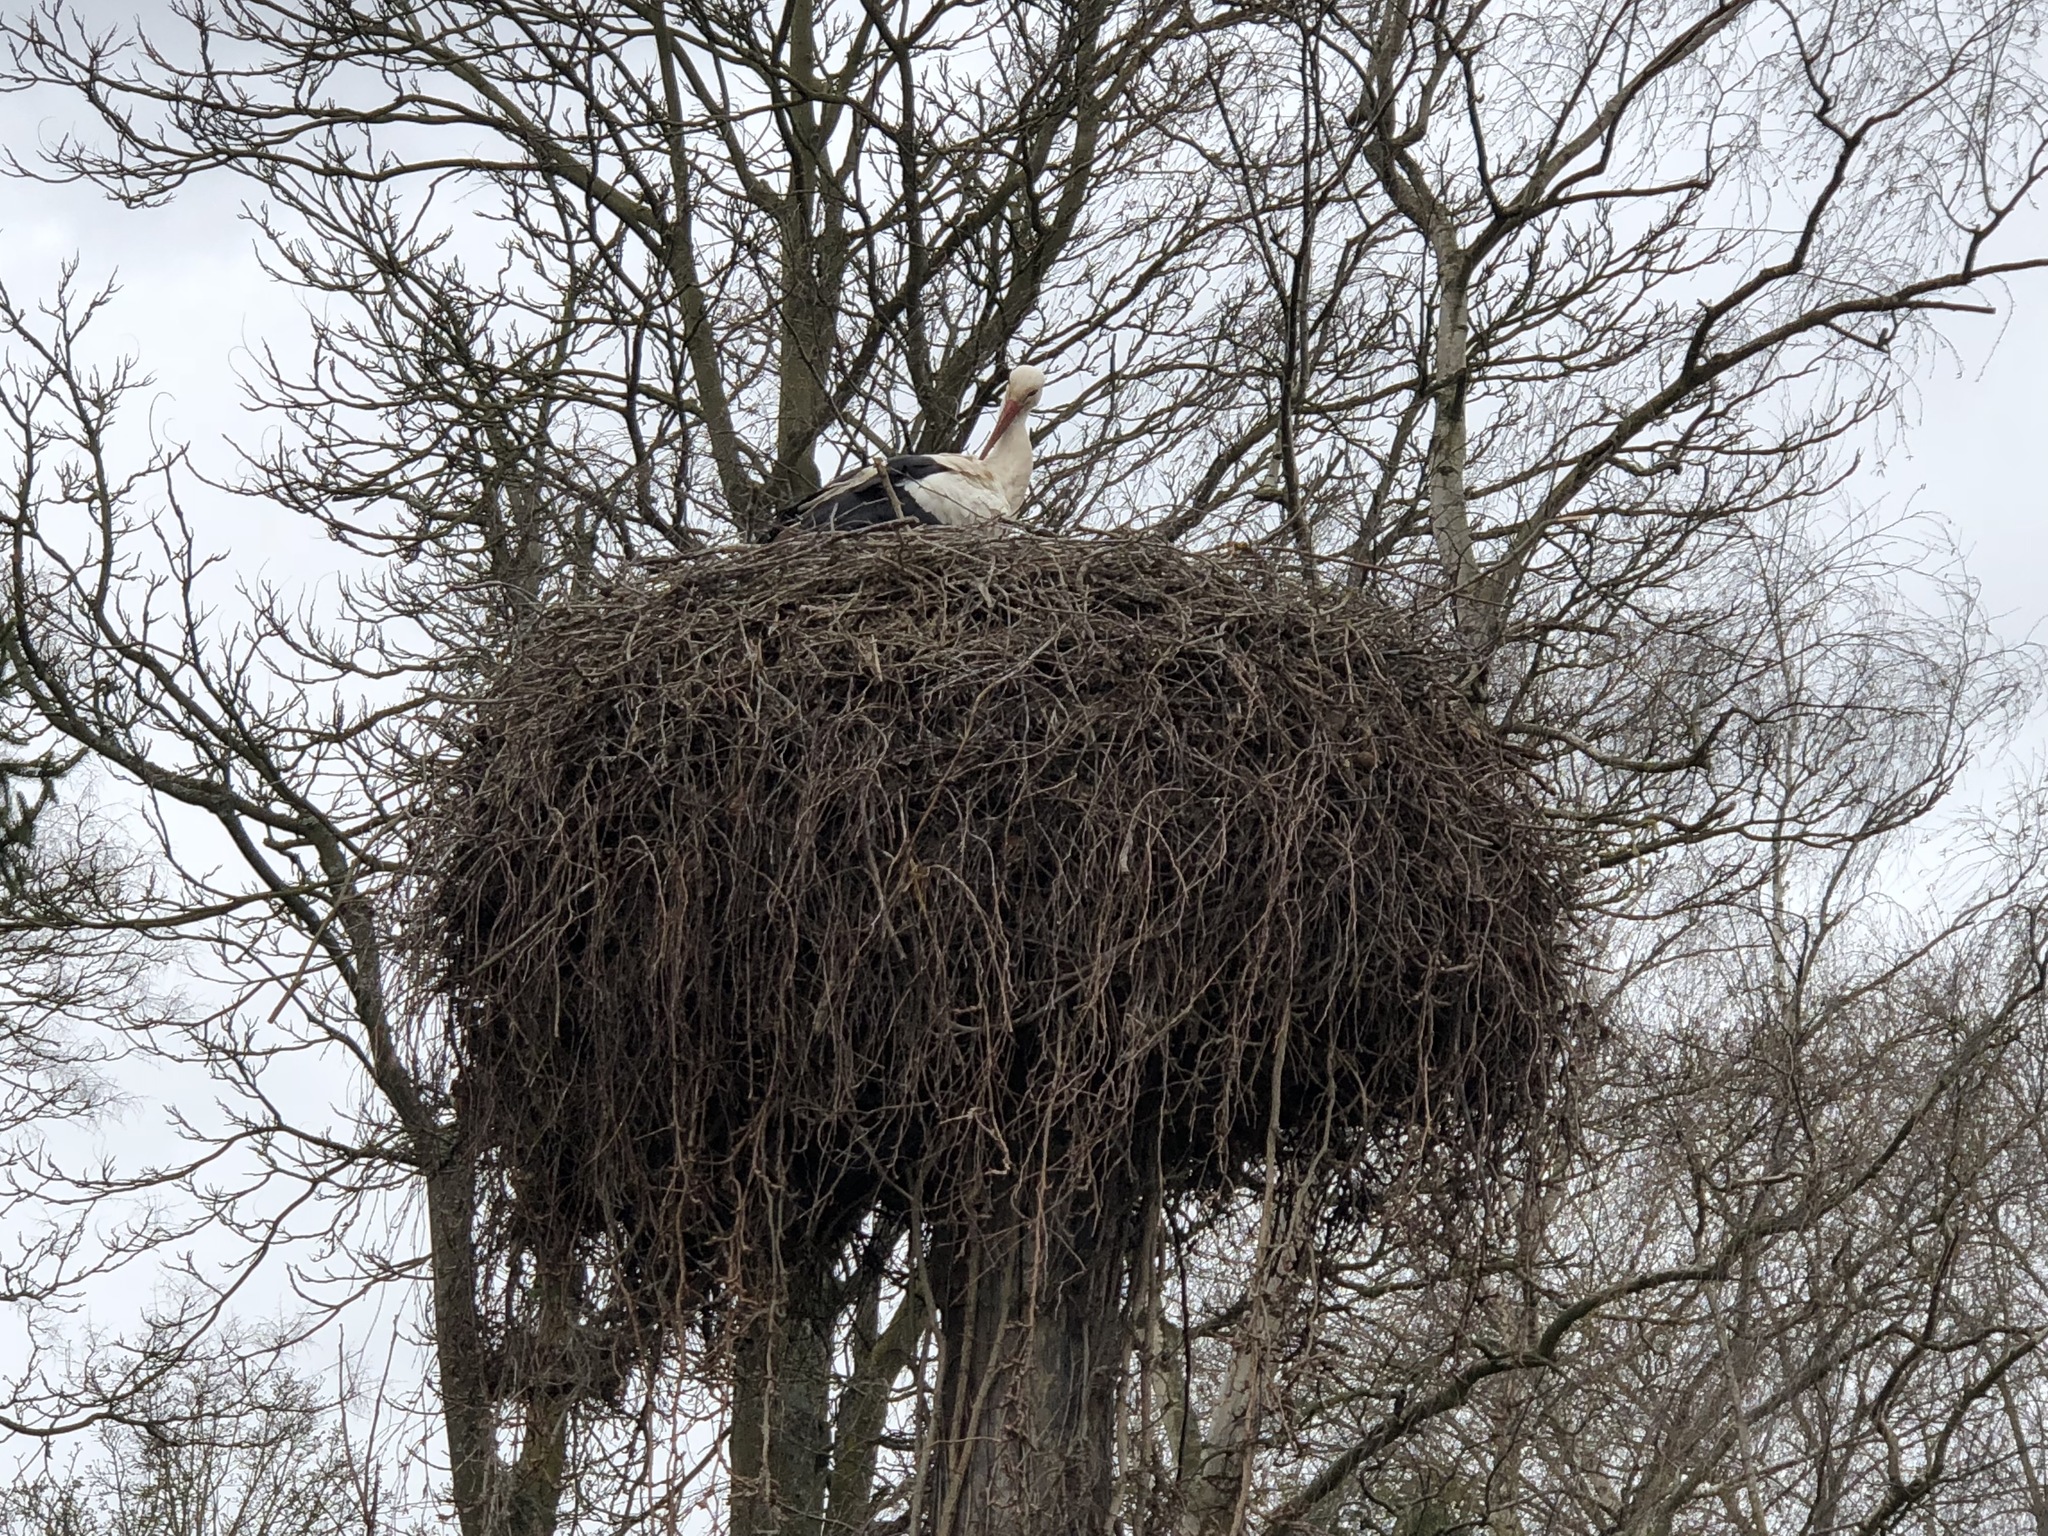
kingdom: Animalia
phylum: Chordata
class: Aves
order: Ciconiiformes
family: Ciconiidae
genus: Ciconia
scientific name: Ciconia ciconia
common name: White stork
